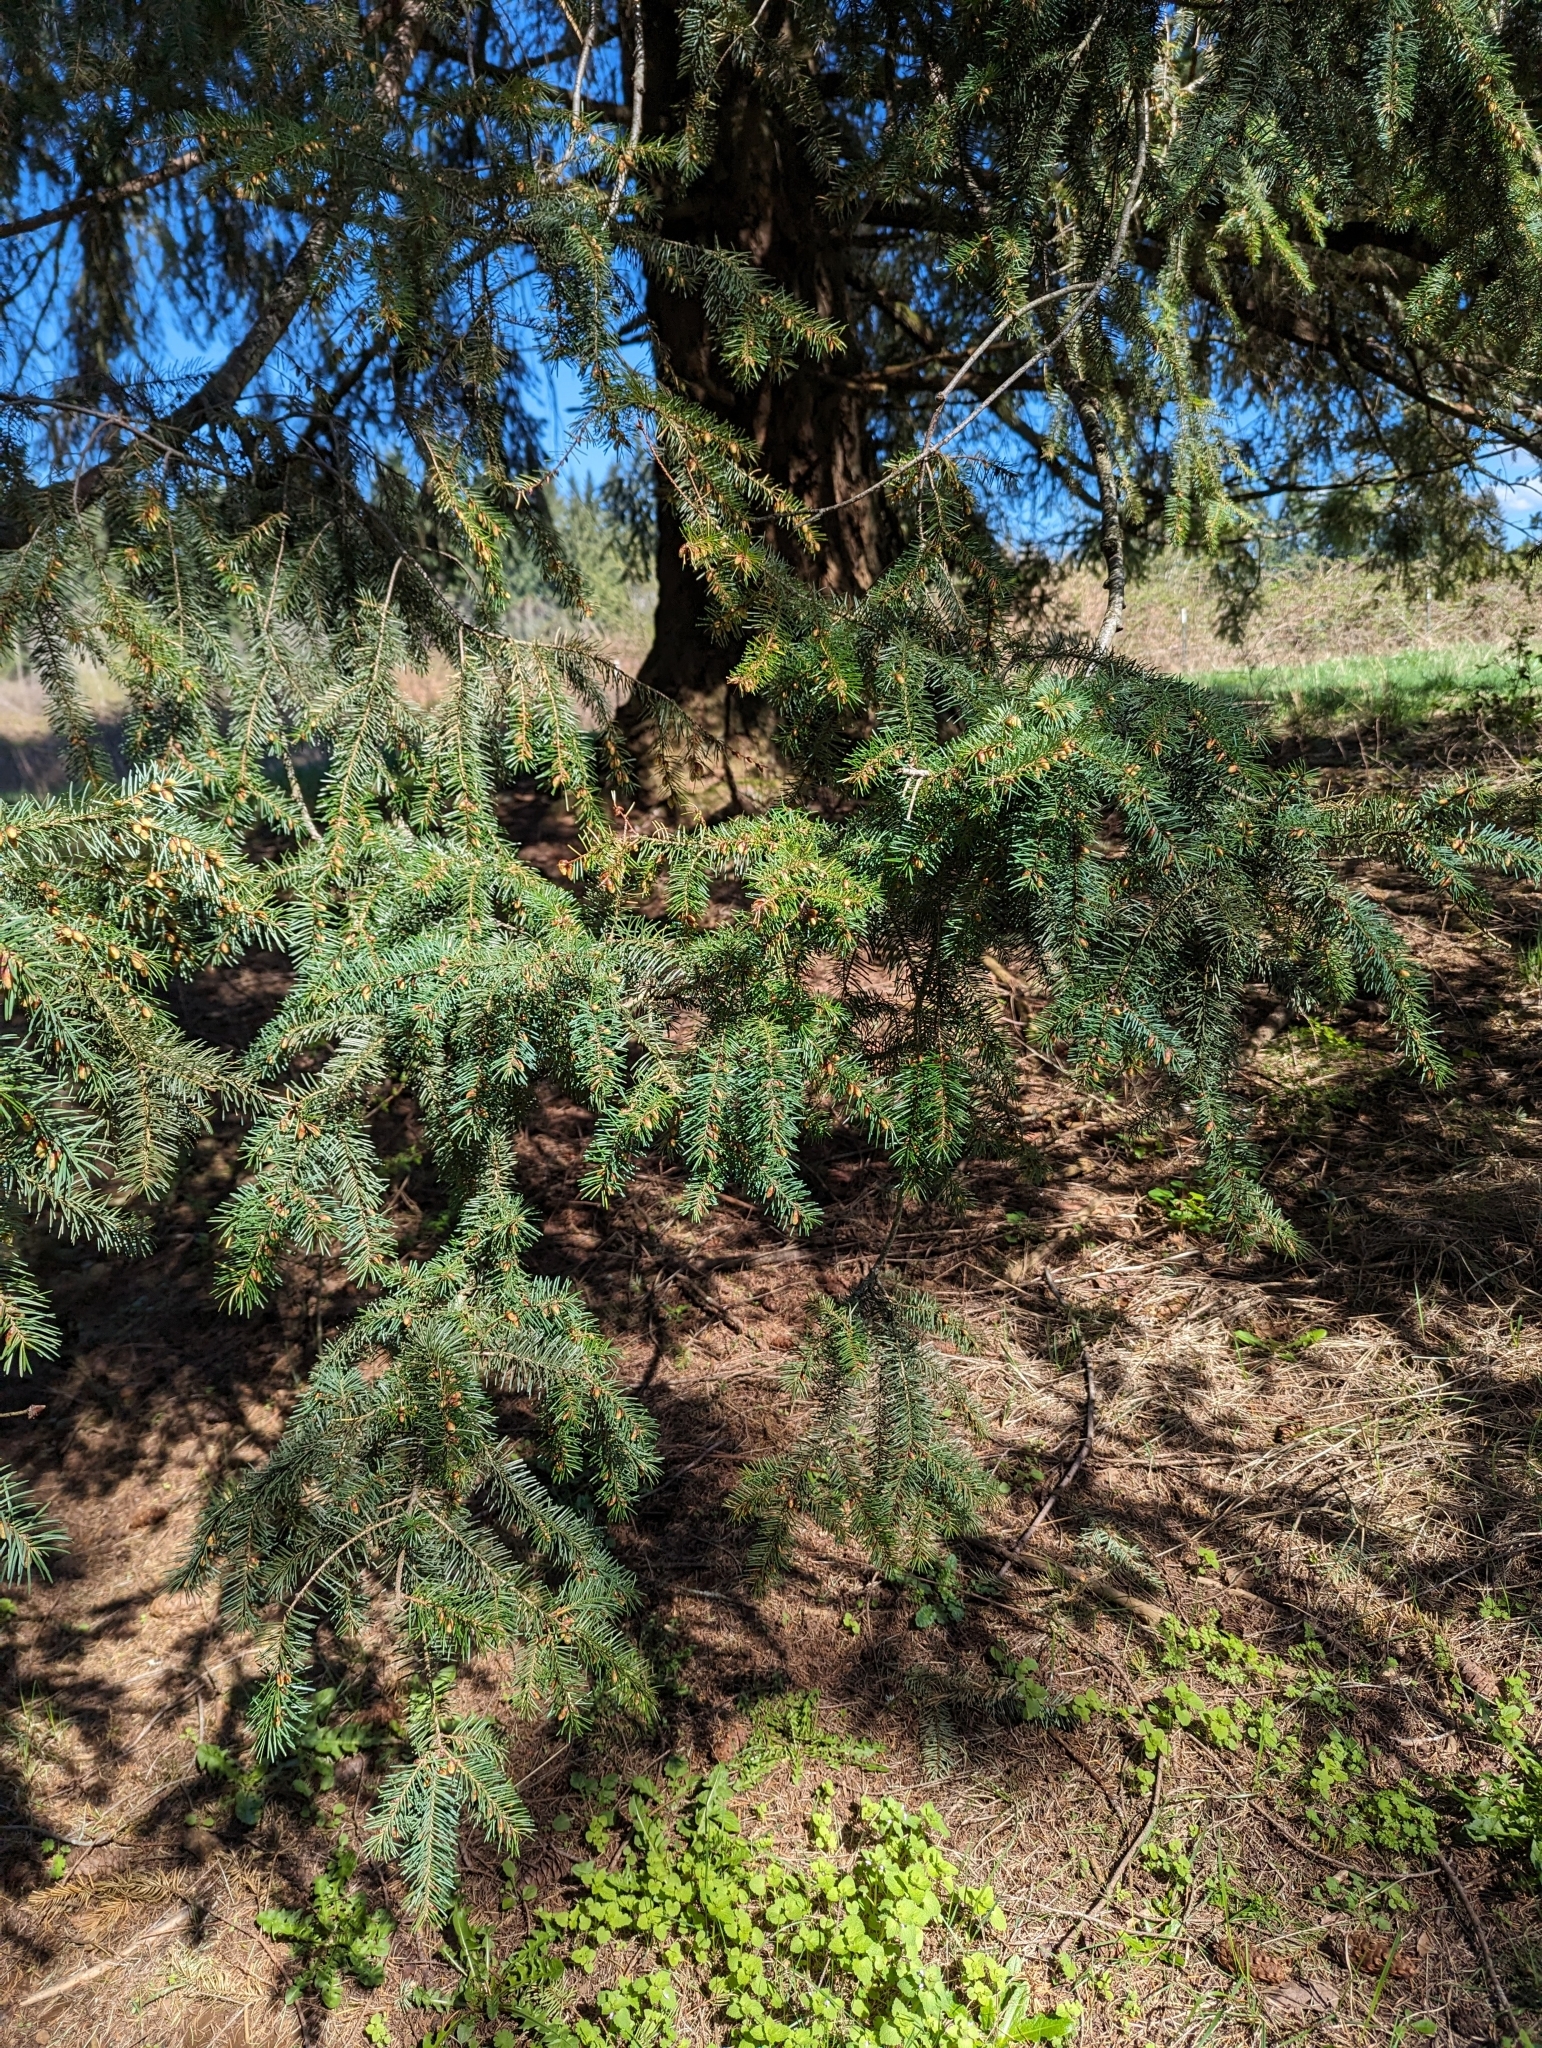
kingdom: Plantae
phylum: Tracheophyta
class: Pinopsida
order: Pinales
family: Pinaceae
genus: Pseudotsuga
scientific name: Pseudotsuga menziesii
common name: Douglas fir
